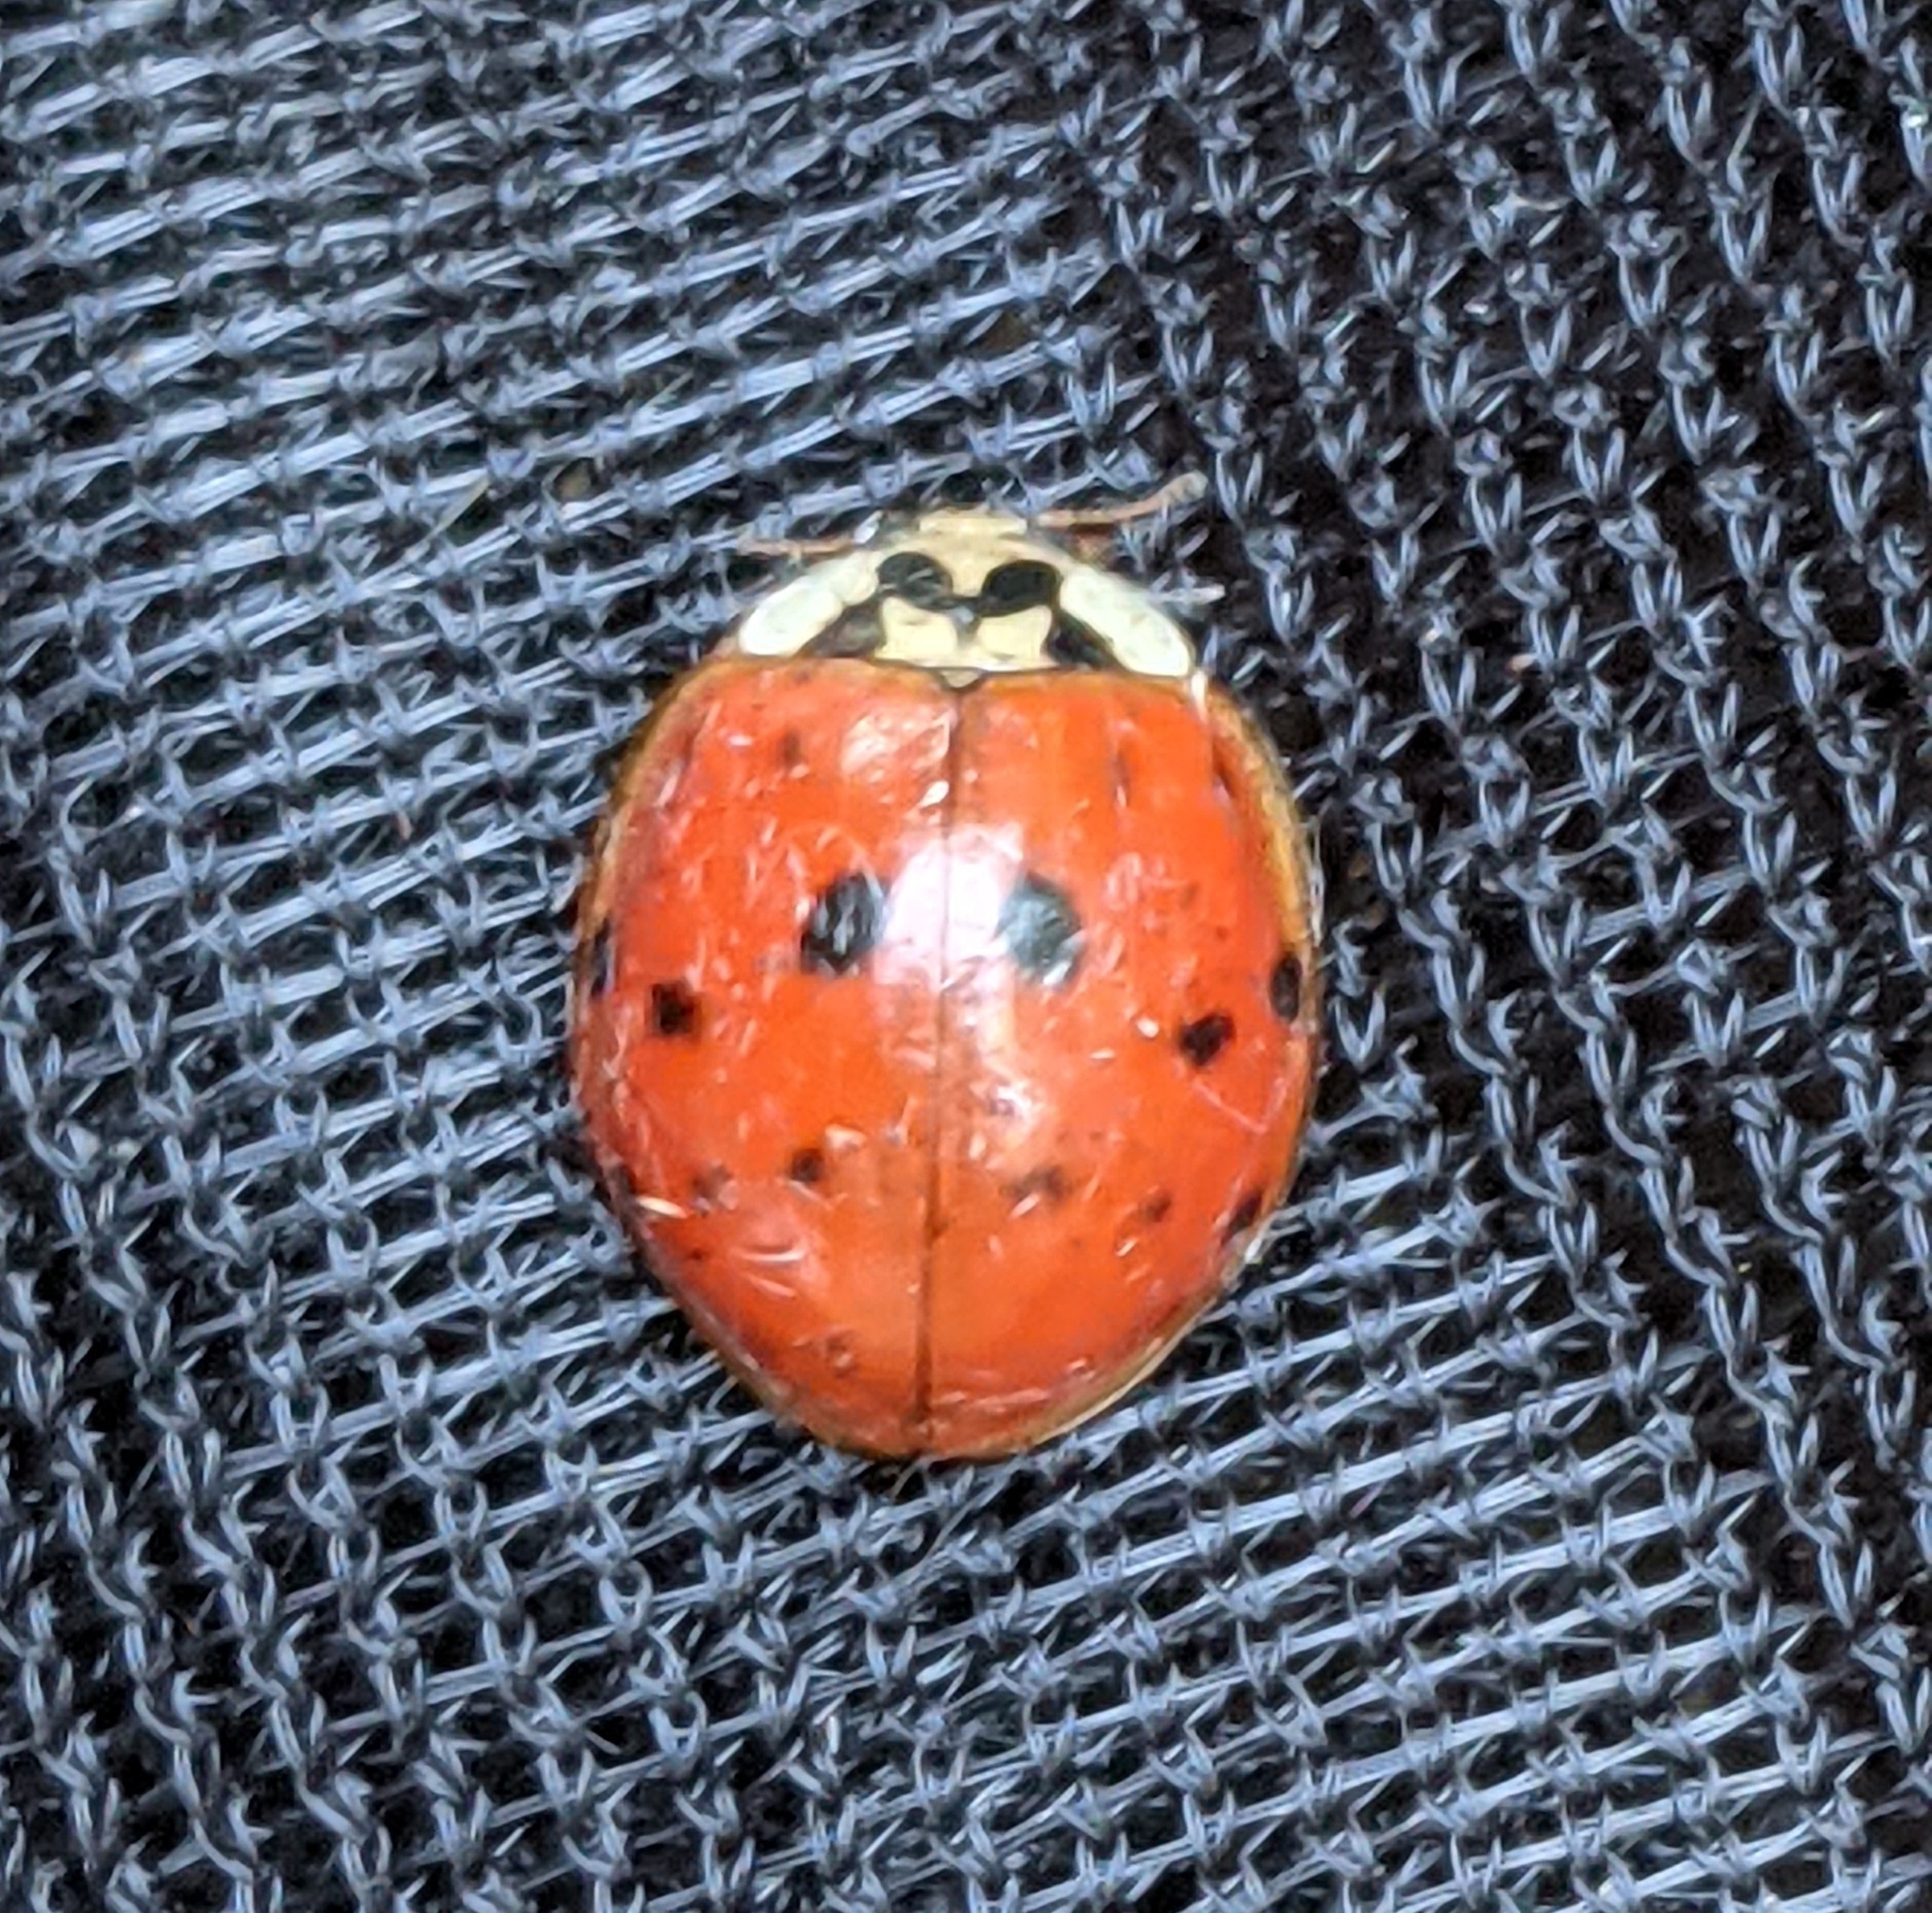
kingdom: Animalia
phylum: Arthropoda
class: Insecta
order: Coleoptera
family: Coccinellidae
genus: Harmonia
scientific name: Harmonia axyridis
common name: Harlequin ladybird
